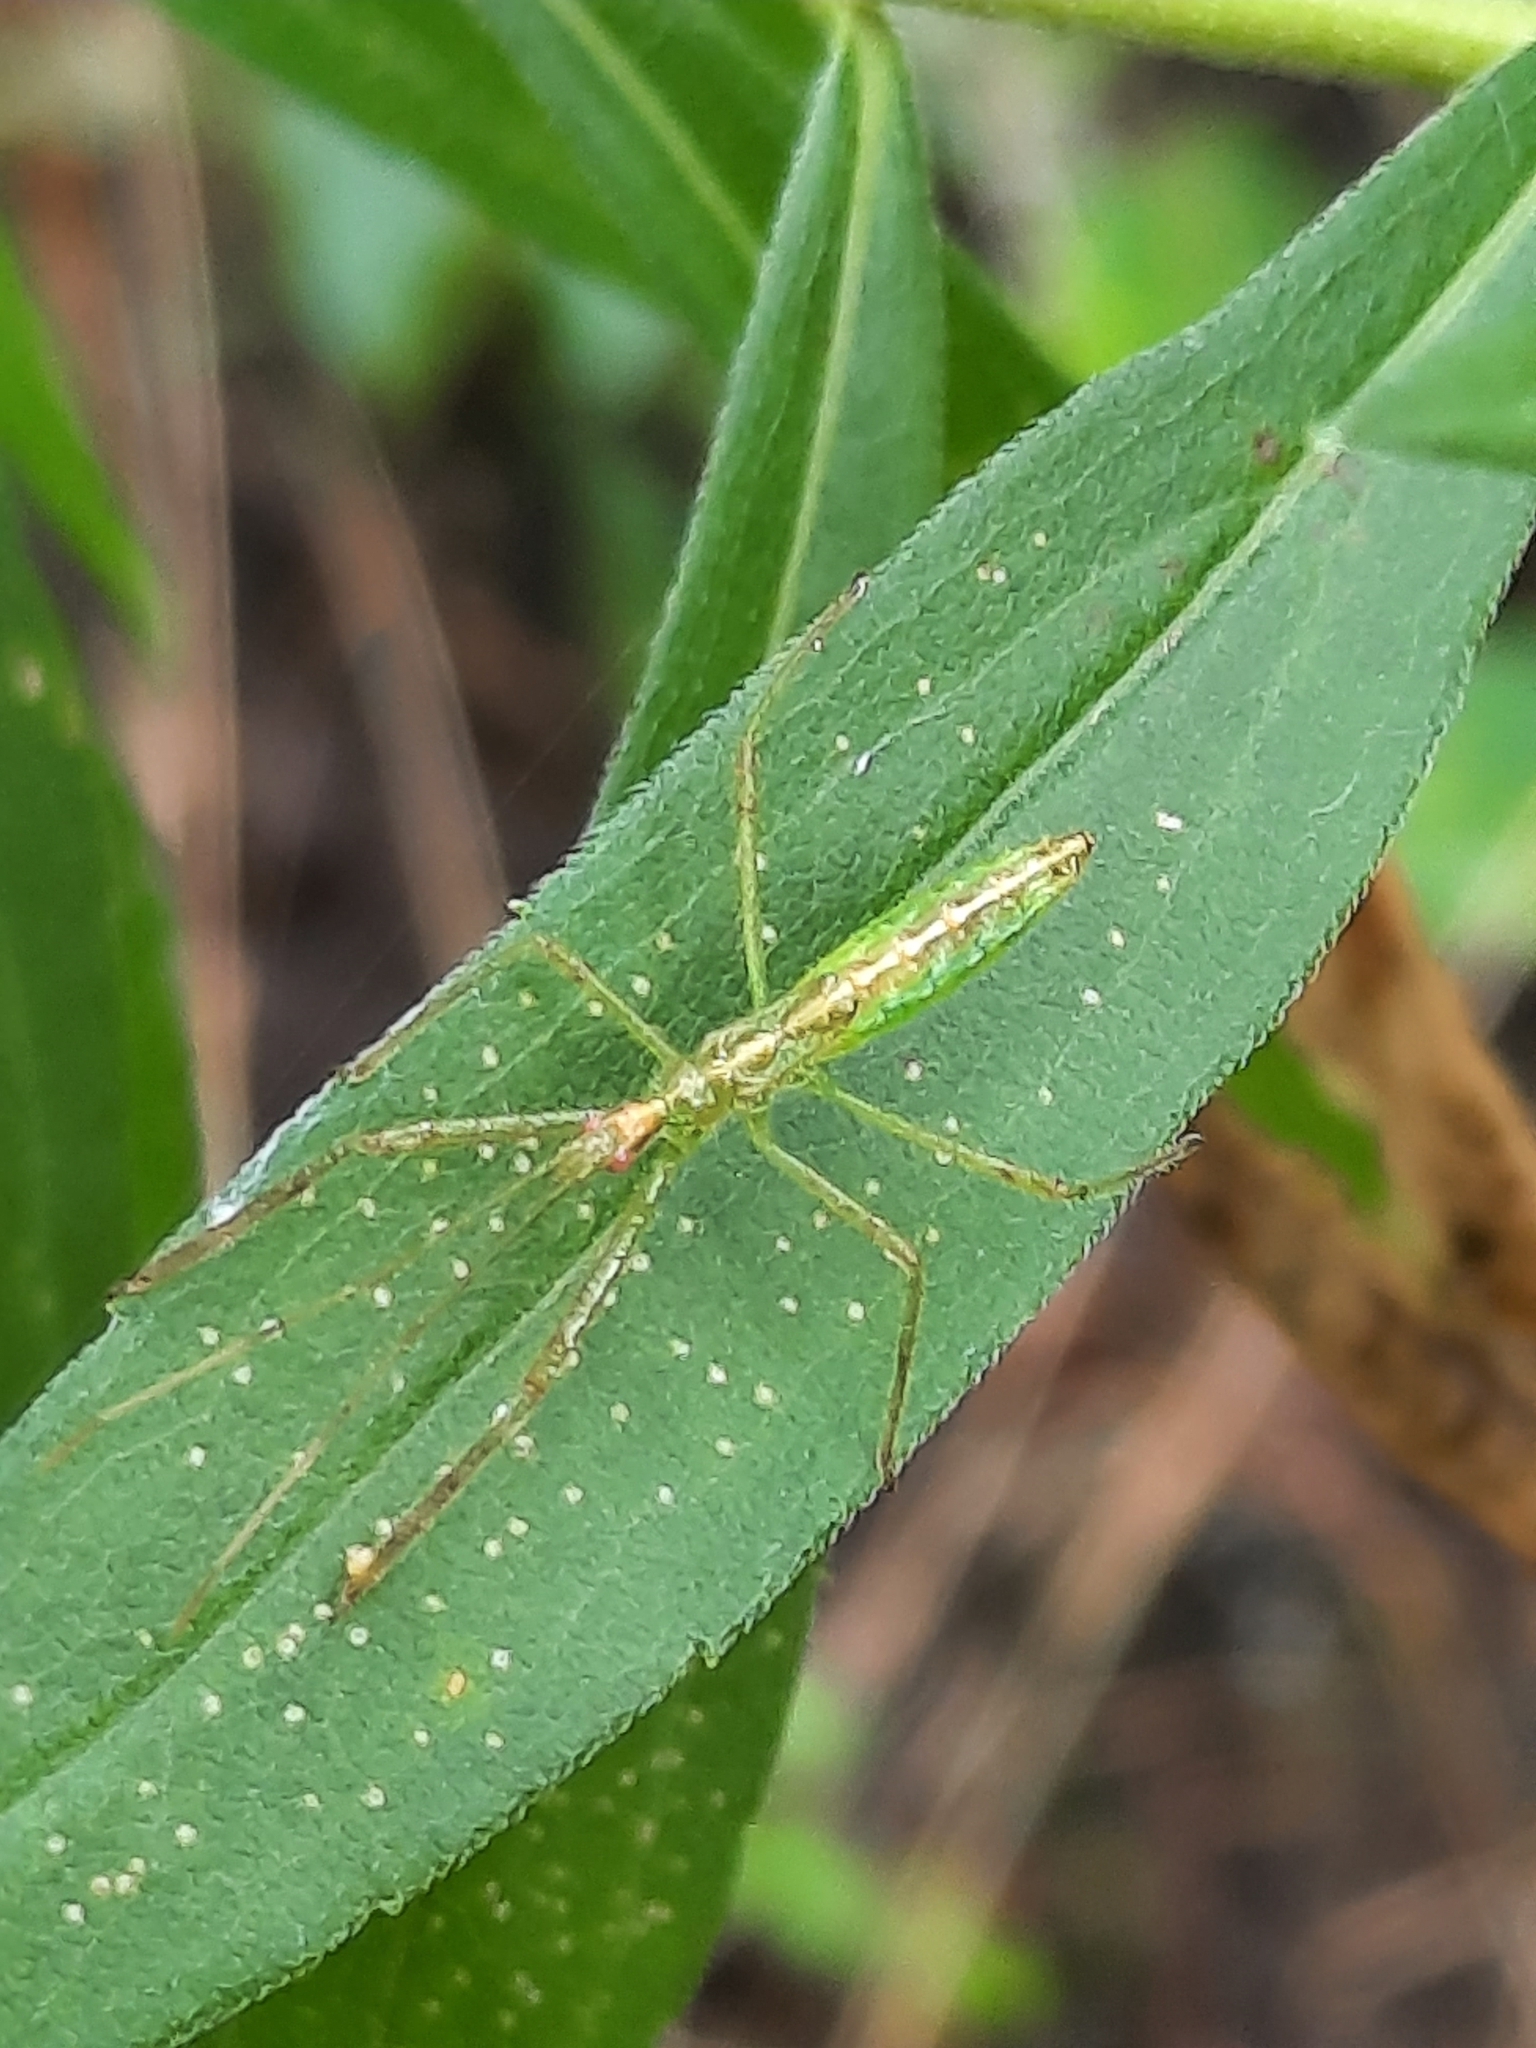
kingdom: Animalia
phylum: Arthropoda
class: Insecta
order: Hemiptera
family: Reduviidae
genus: Zelus
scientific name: Zelus luridus
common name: Pale green assassin bug
